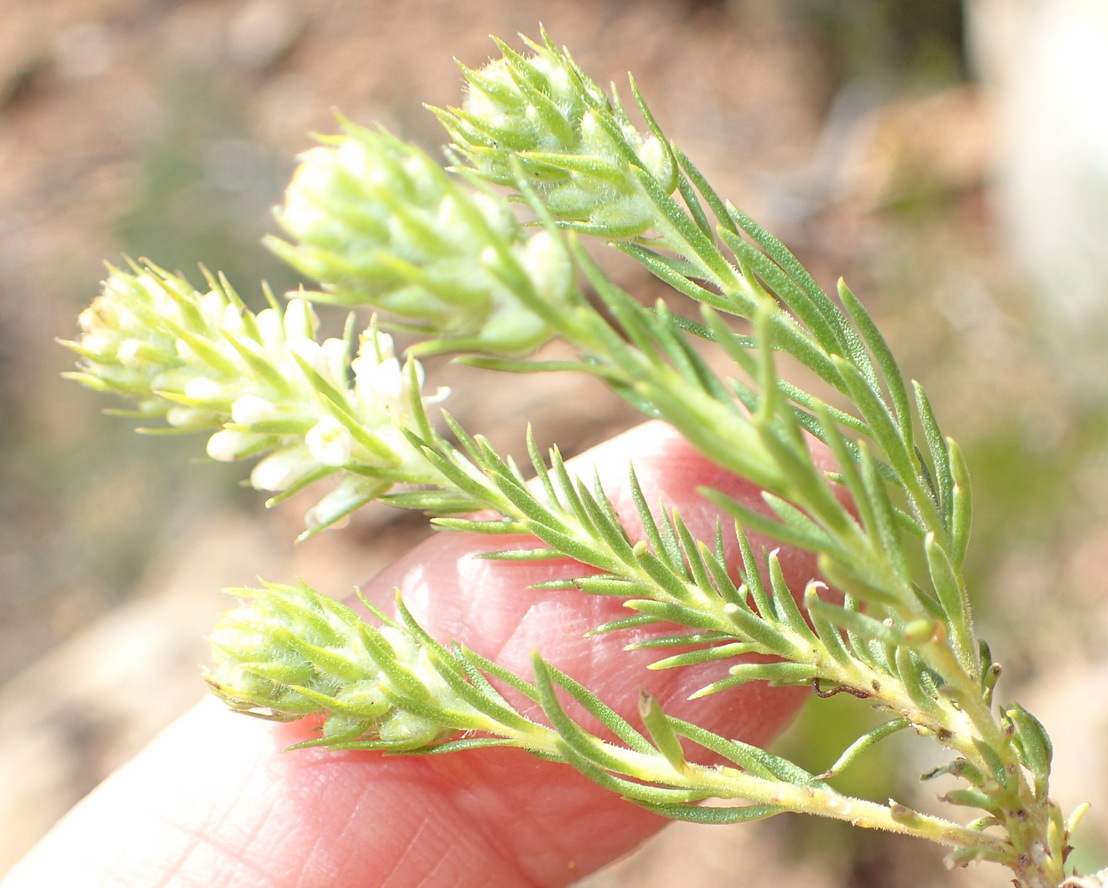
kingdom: Plantae
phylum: Tracheophyta
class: Magnoliopsida
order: Lamiales
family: Scrophulariaceae
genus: Selago
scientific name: Selago eckloniana
